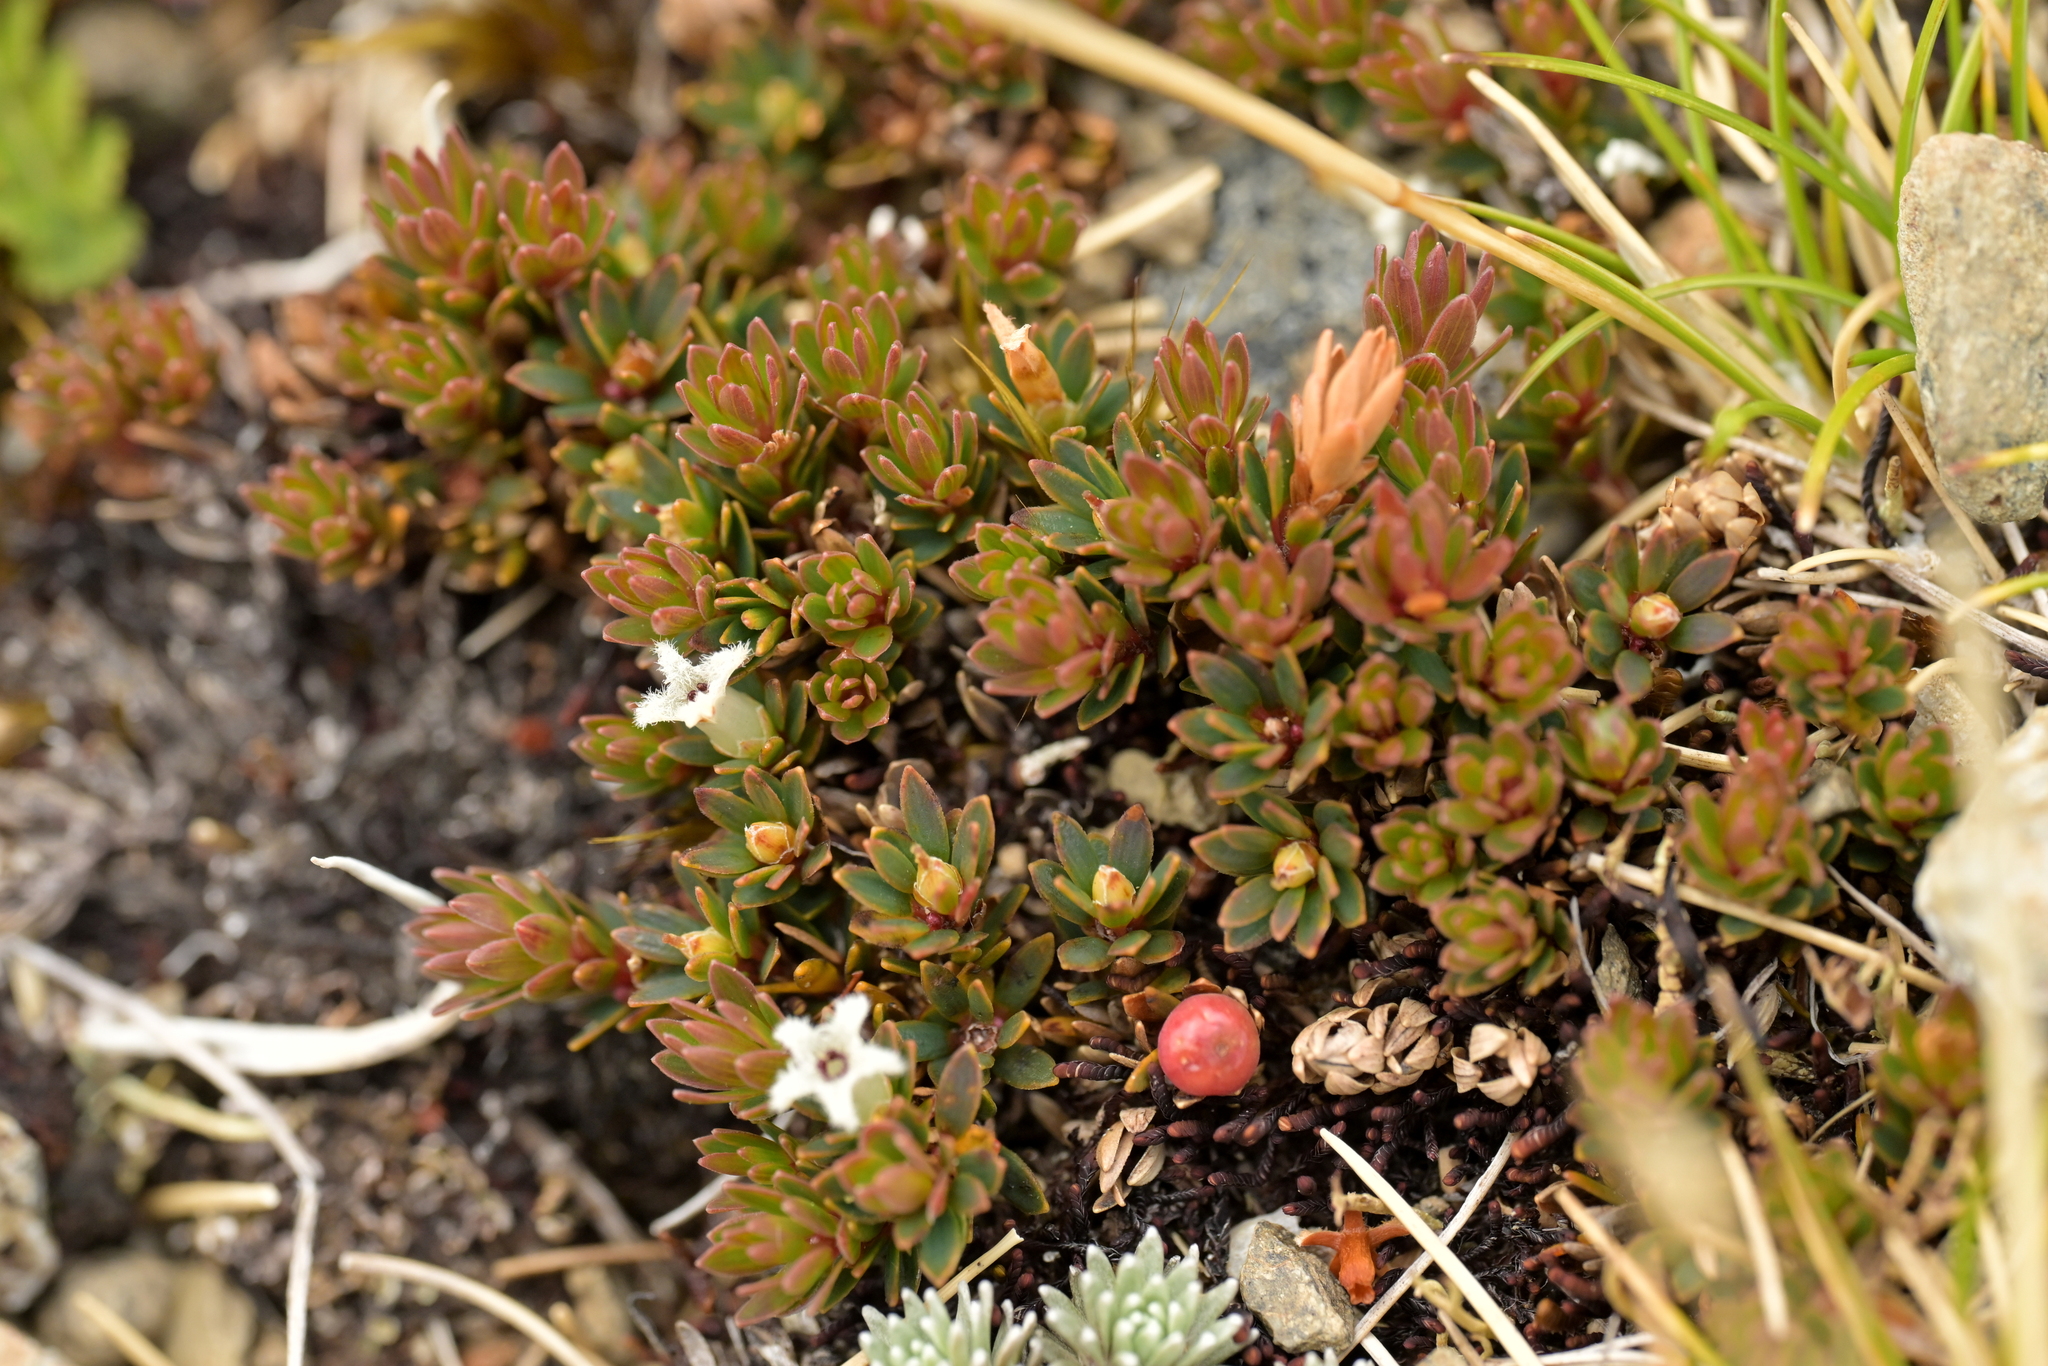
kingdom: Plantae
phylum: Tracheophyta
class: Magnoliopsida
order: Ericales
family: Ericaceae
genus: Pentachondra
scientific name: Pentachondra pumila
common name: Carpet-heath
